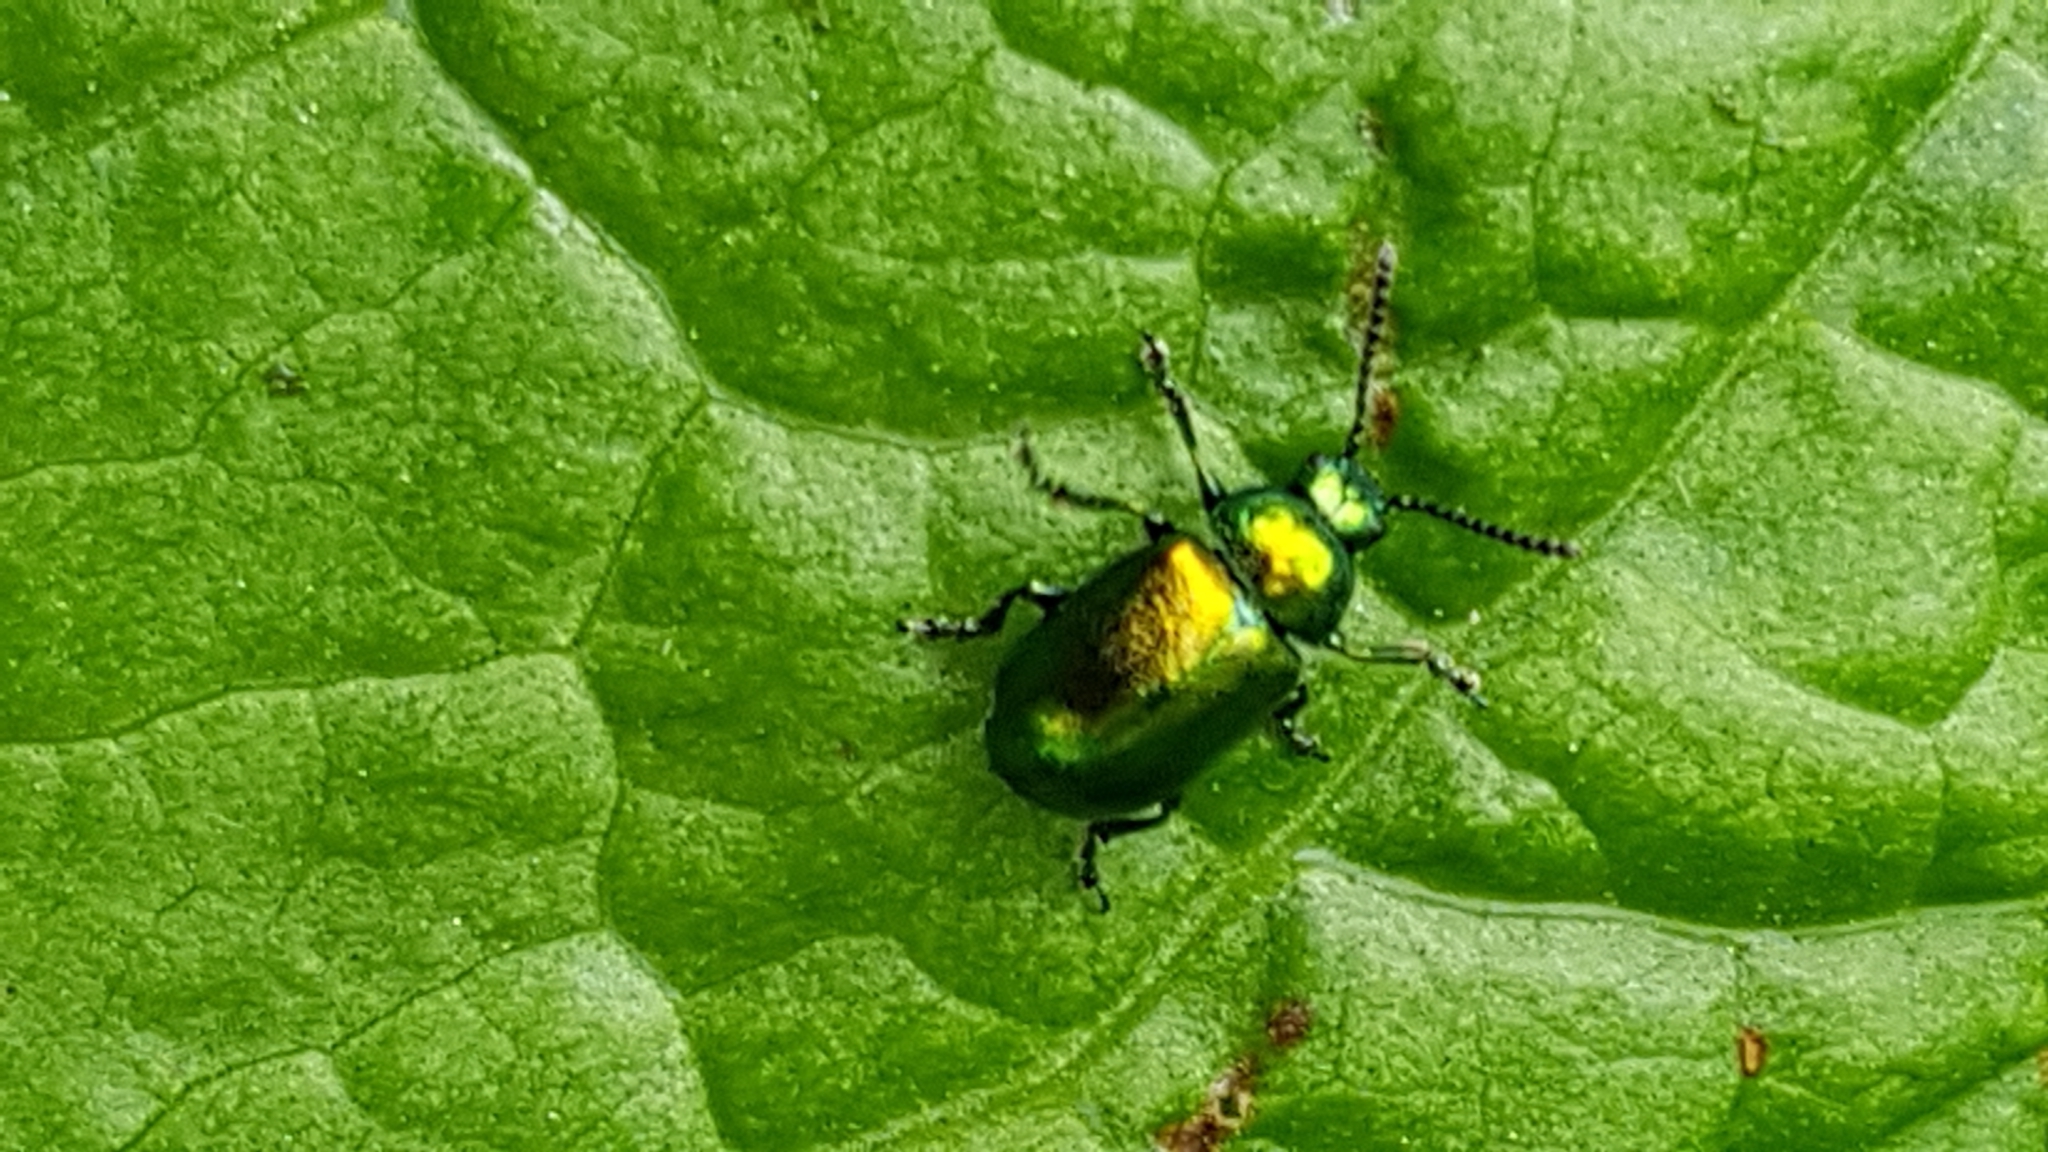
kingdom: Animalia
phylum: Arthropoda
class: Insecta
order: Coleoptera
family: Chrysomelidae
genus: Gastrophysa
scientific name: Gastrophysa viridula
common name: Green dock beetle
